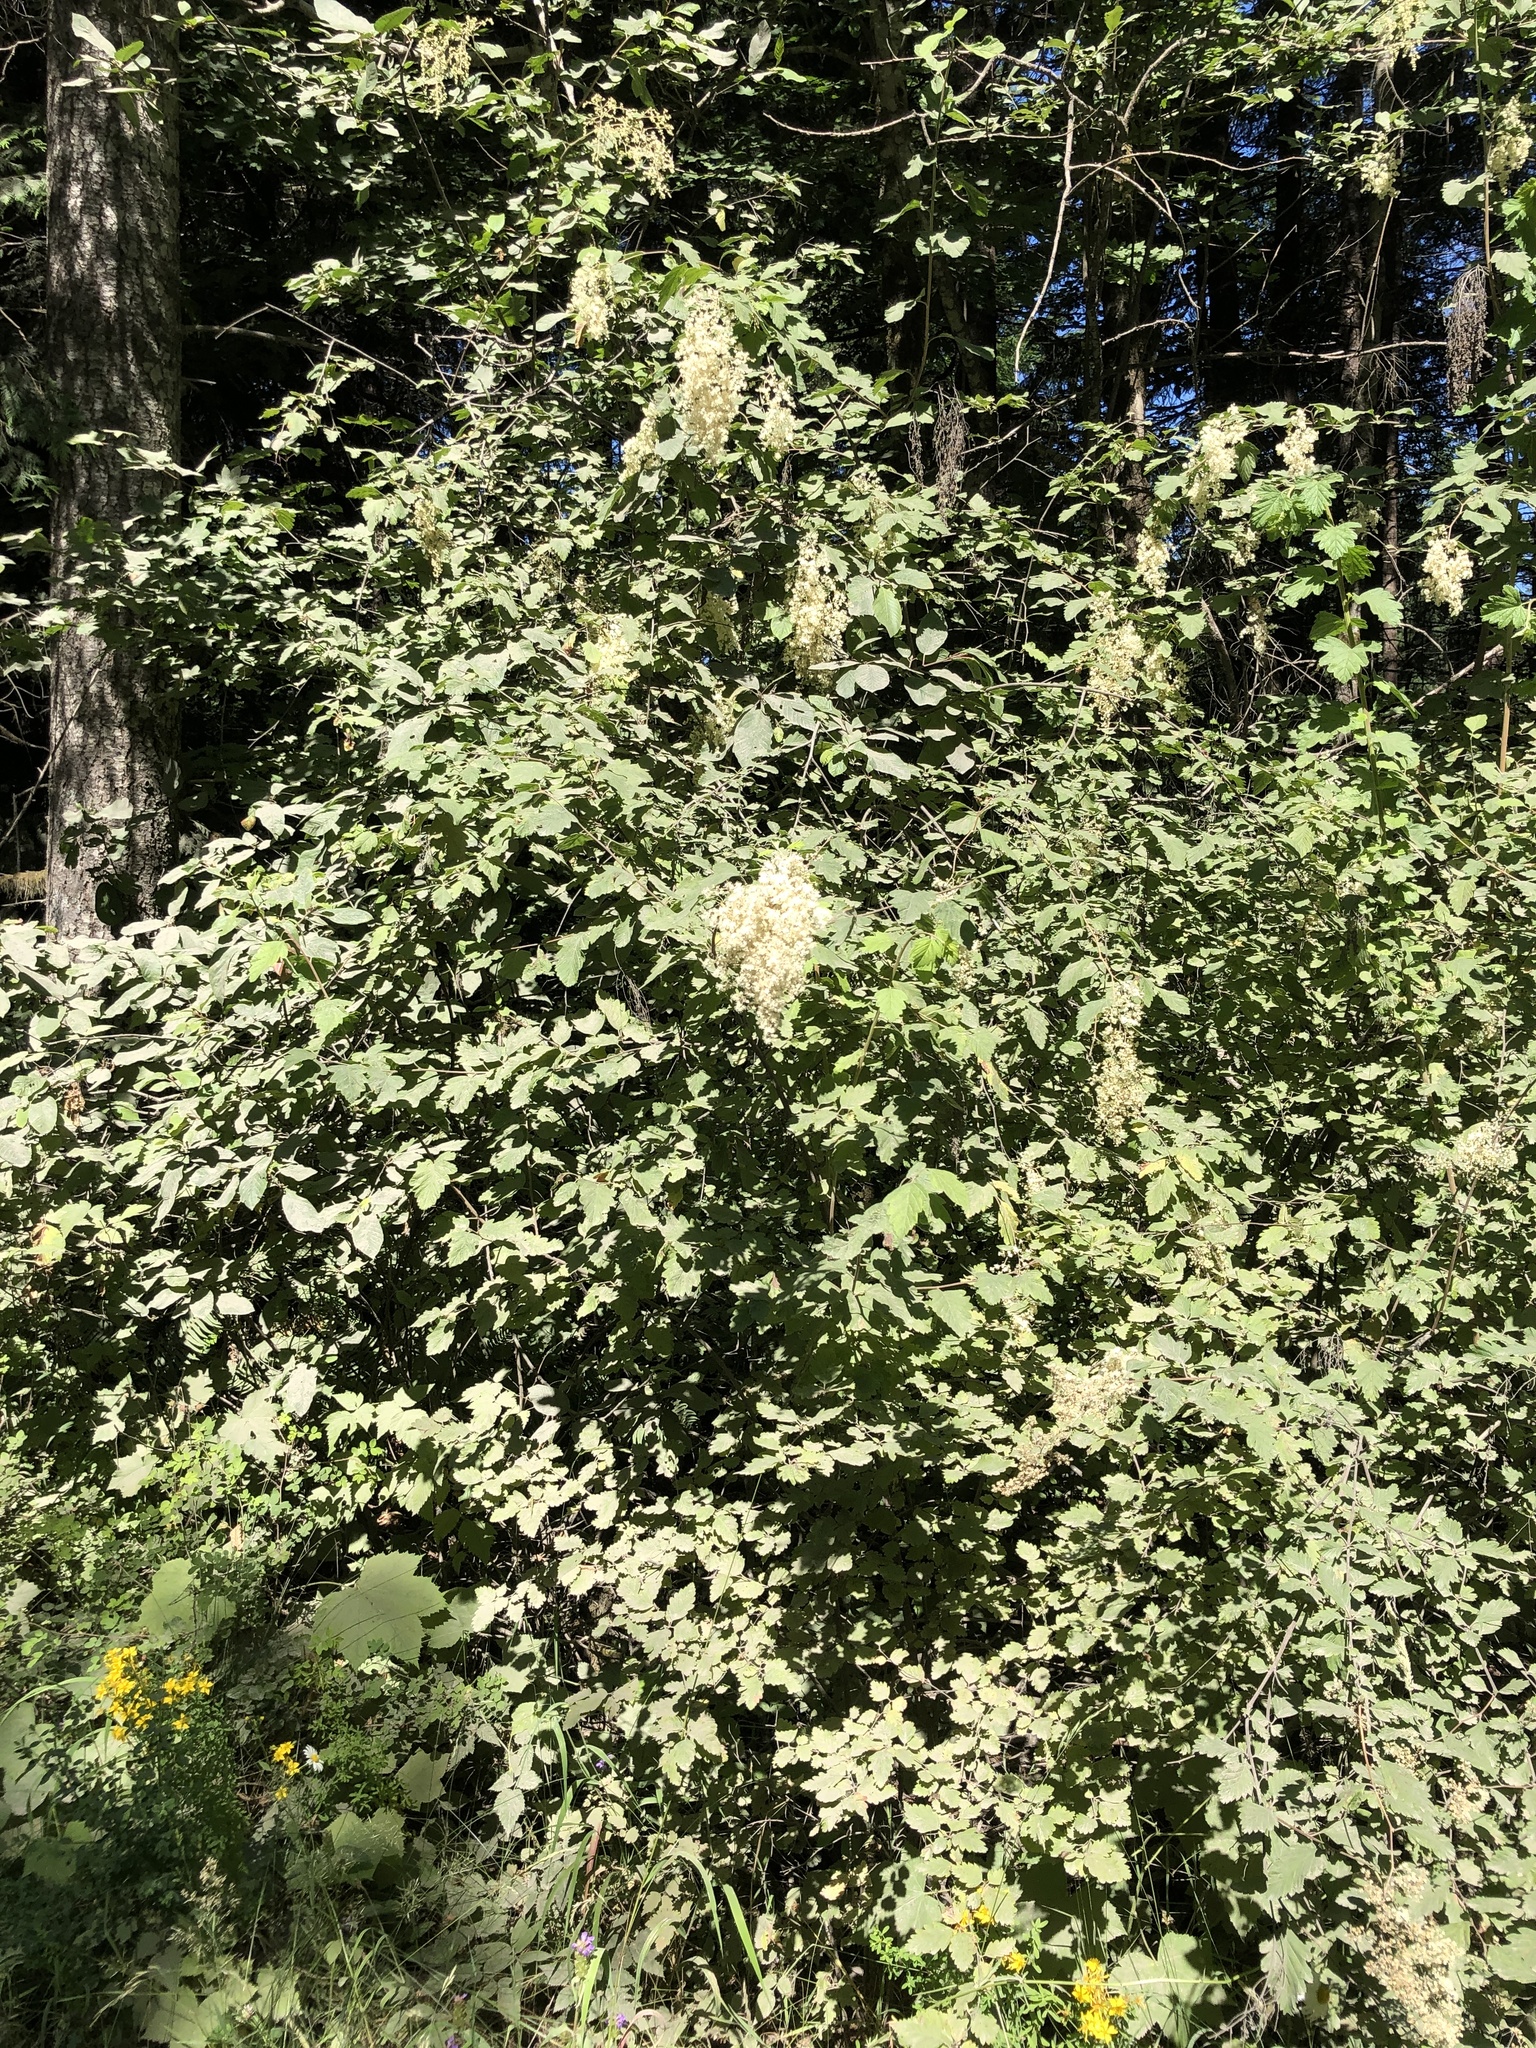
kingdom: Plantae
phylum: Tracheophyta
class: Magnoliopsida
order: Rosales
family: Rosaceae
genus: Holodiscus
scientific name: Holodiscus discolor
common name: Oceanspray
